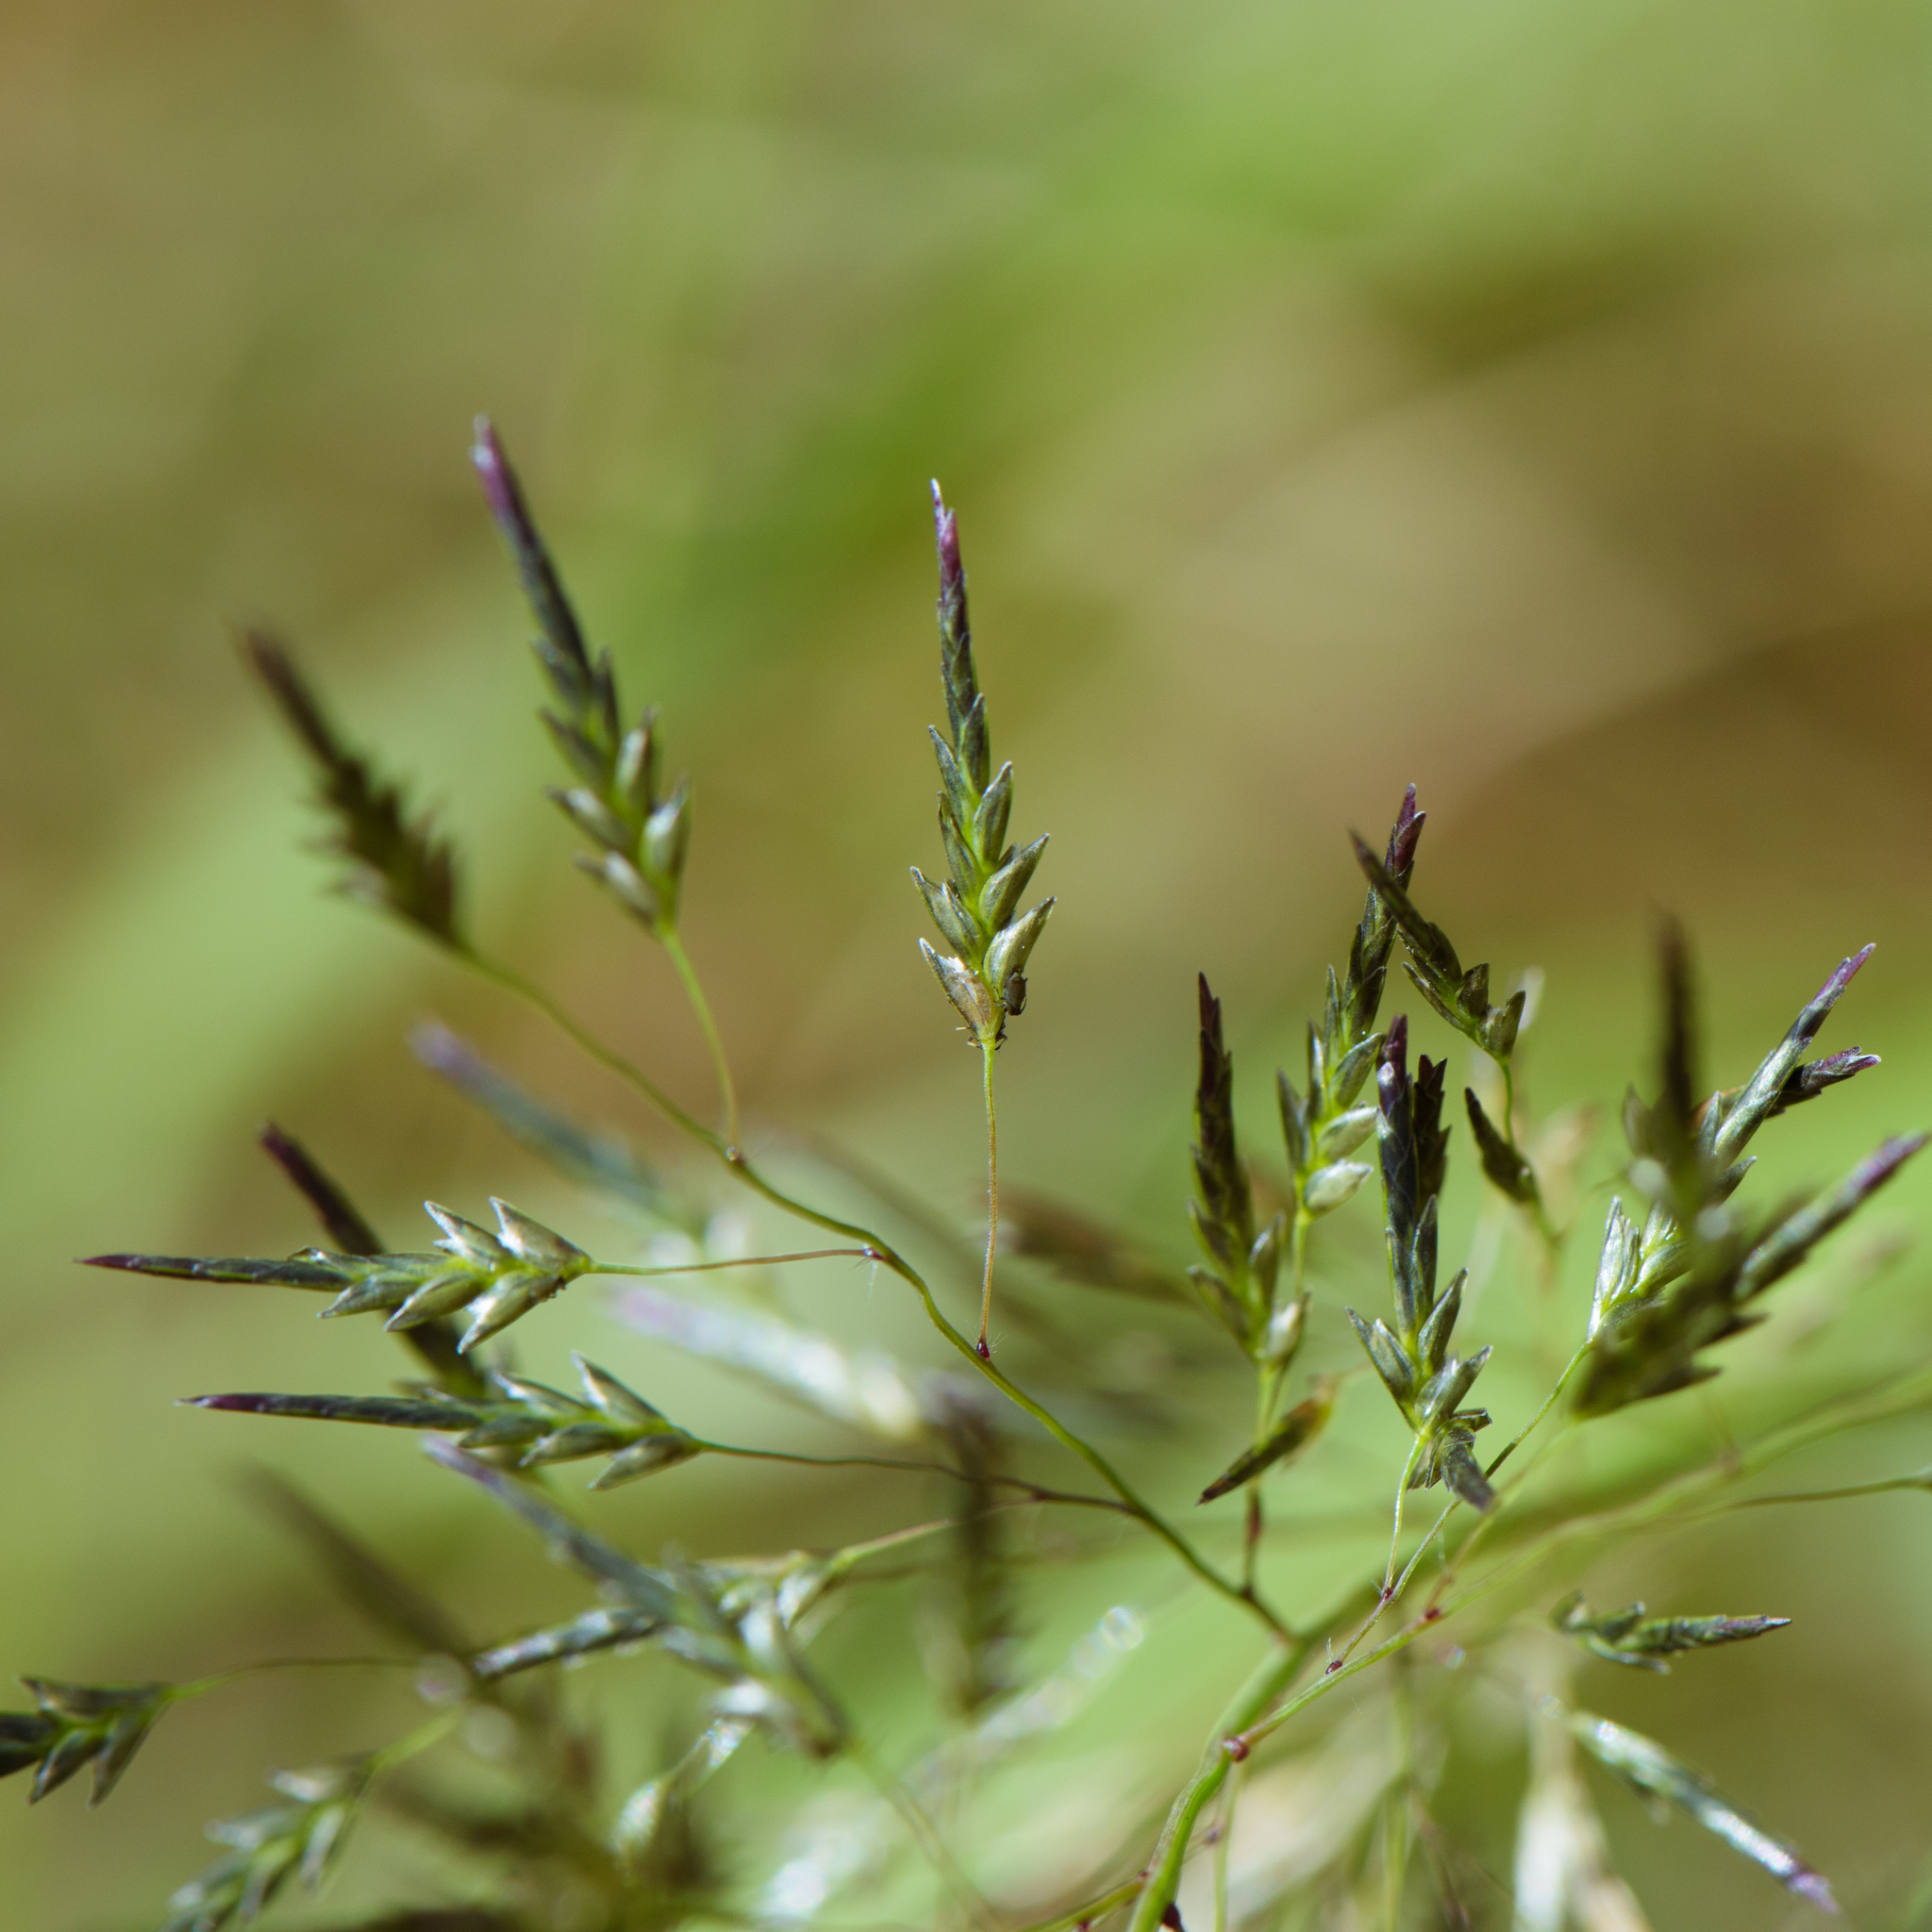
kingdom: Plantae
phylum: Tracheophyta
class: Liliopsida
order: Poales
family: Poaceae
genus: Eragrostis
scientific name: Eragrostis ferruginea
